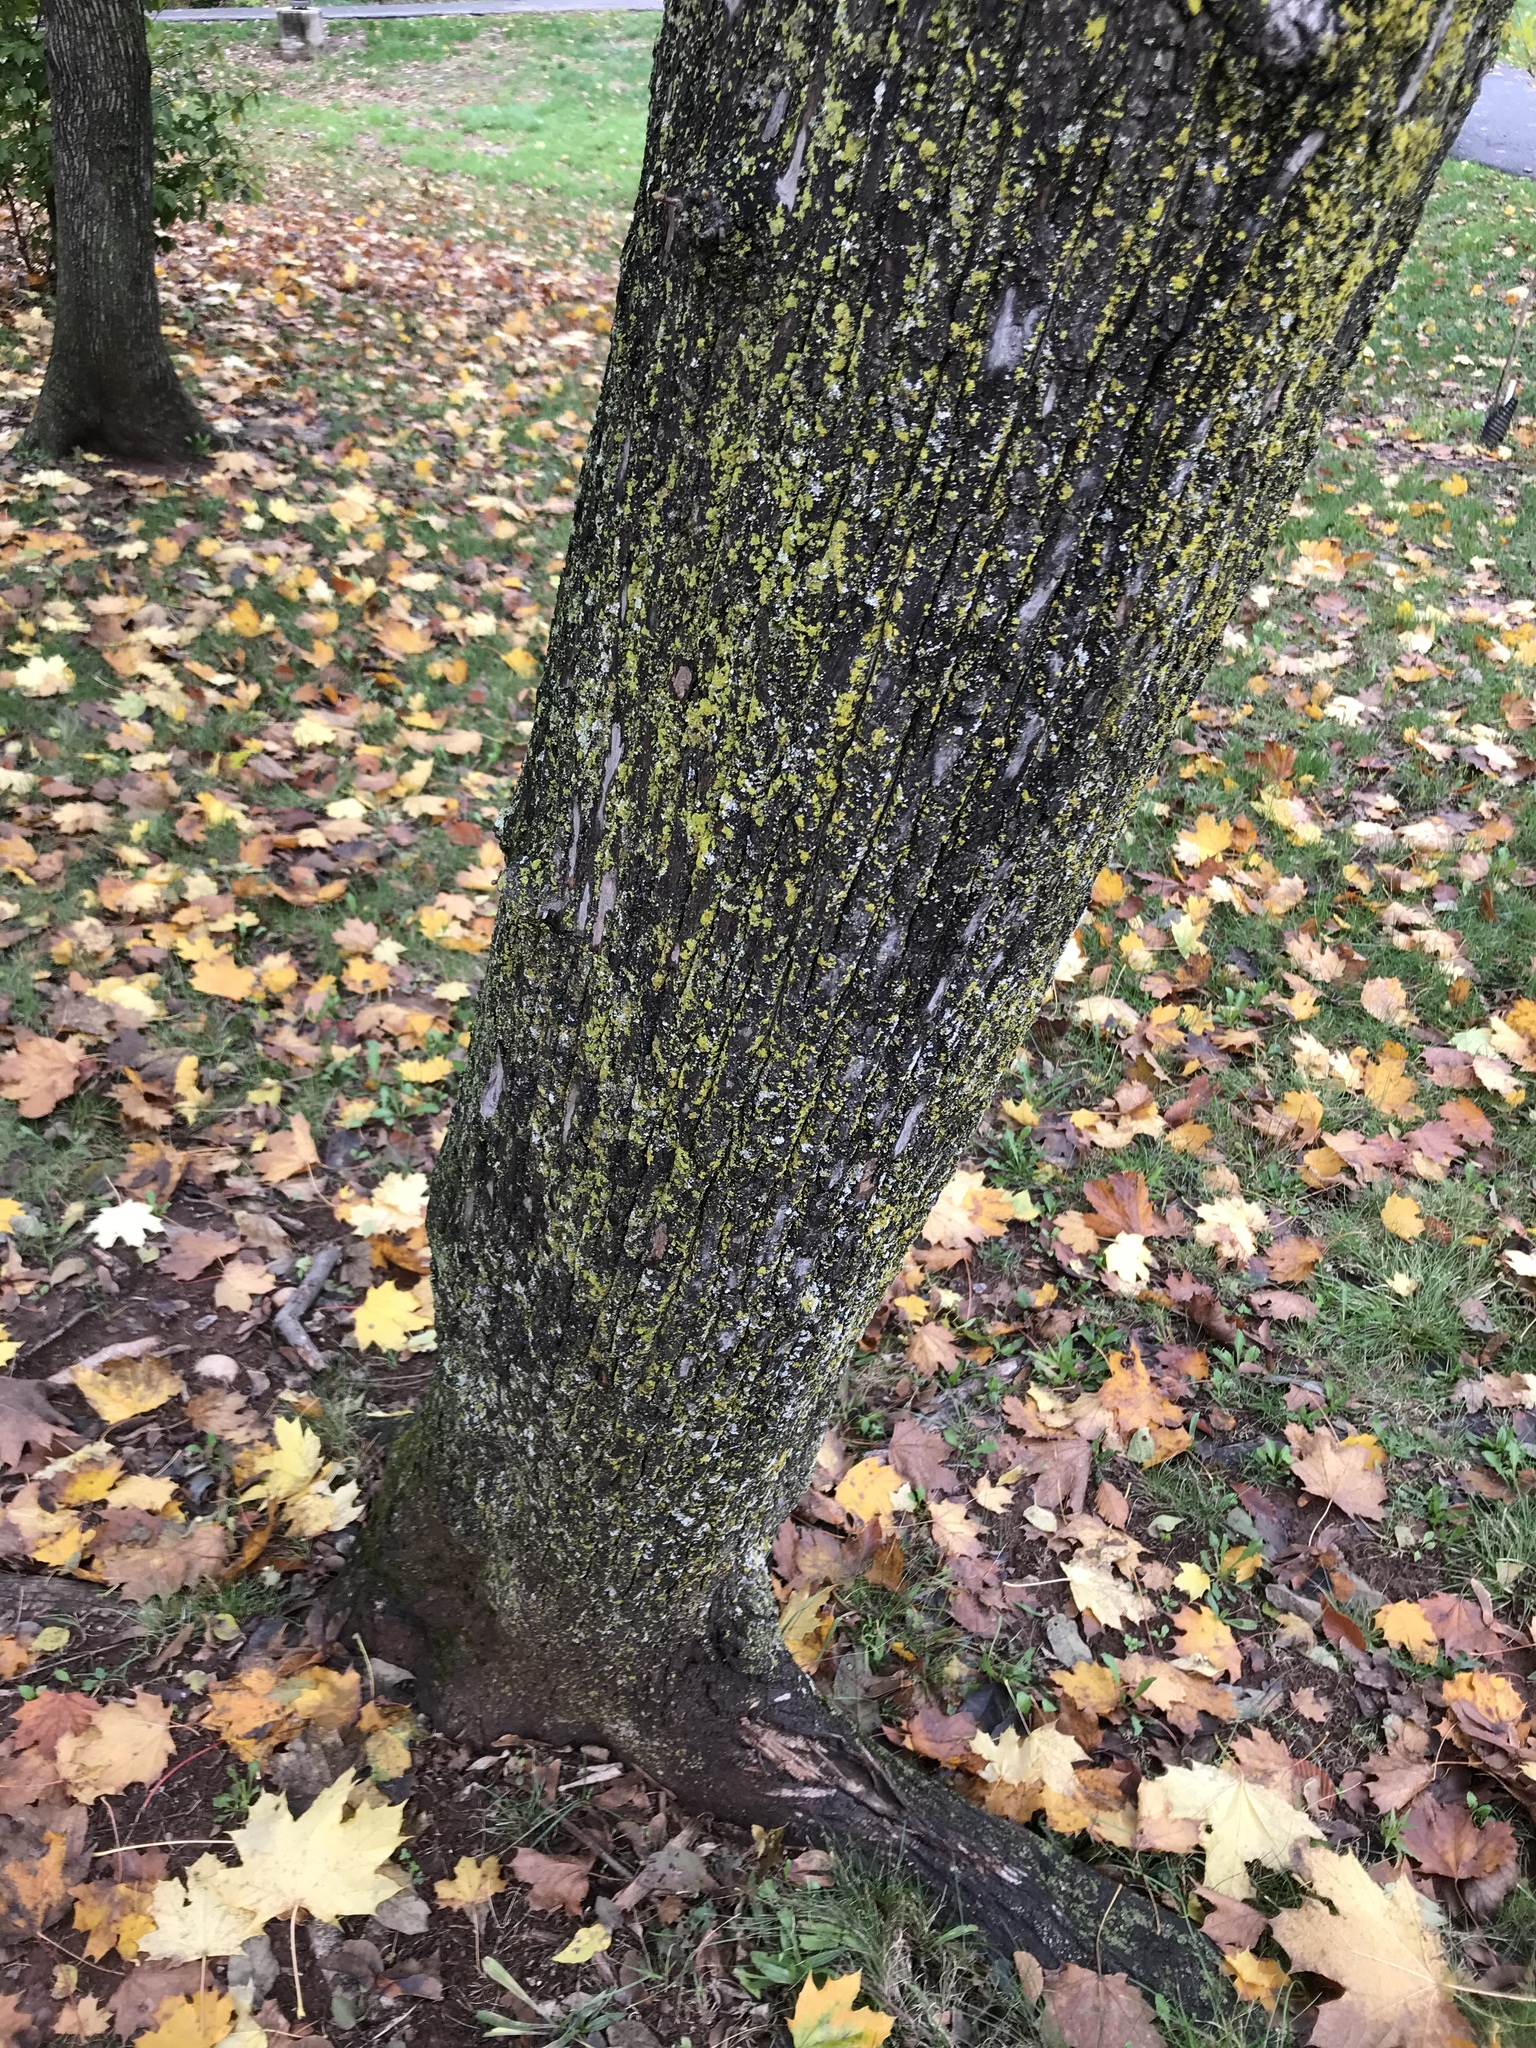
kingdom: Plantae
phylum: Tracheophyta
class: Magnoliopsida
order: Sapindales
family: Sapindaceae
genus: Acer
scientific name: Acer platanoides
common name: Norway maple
